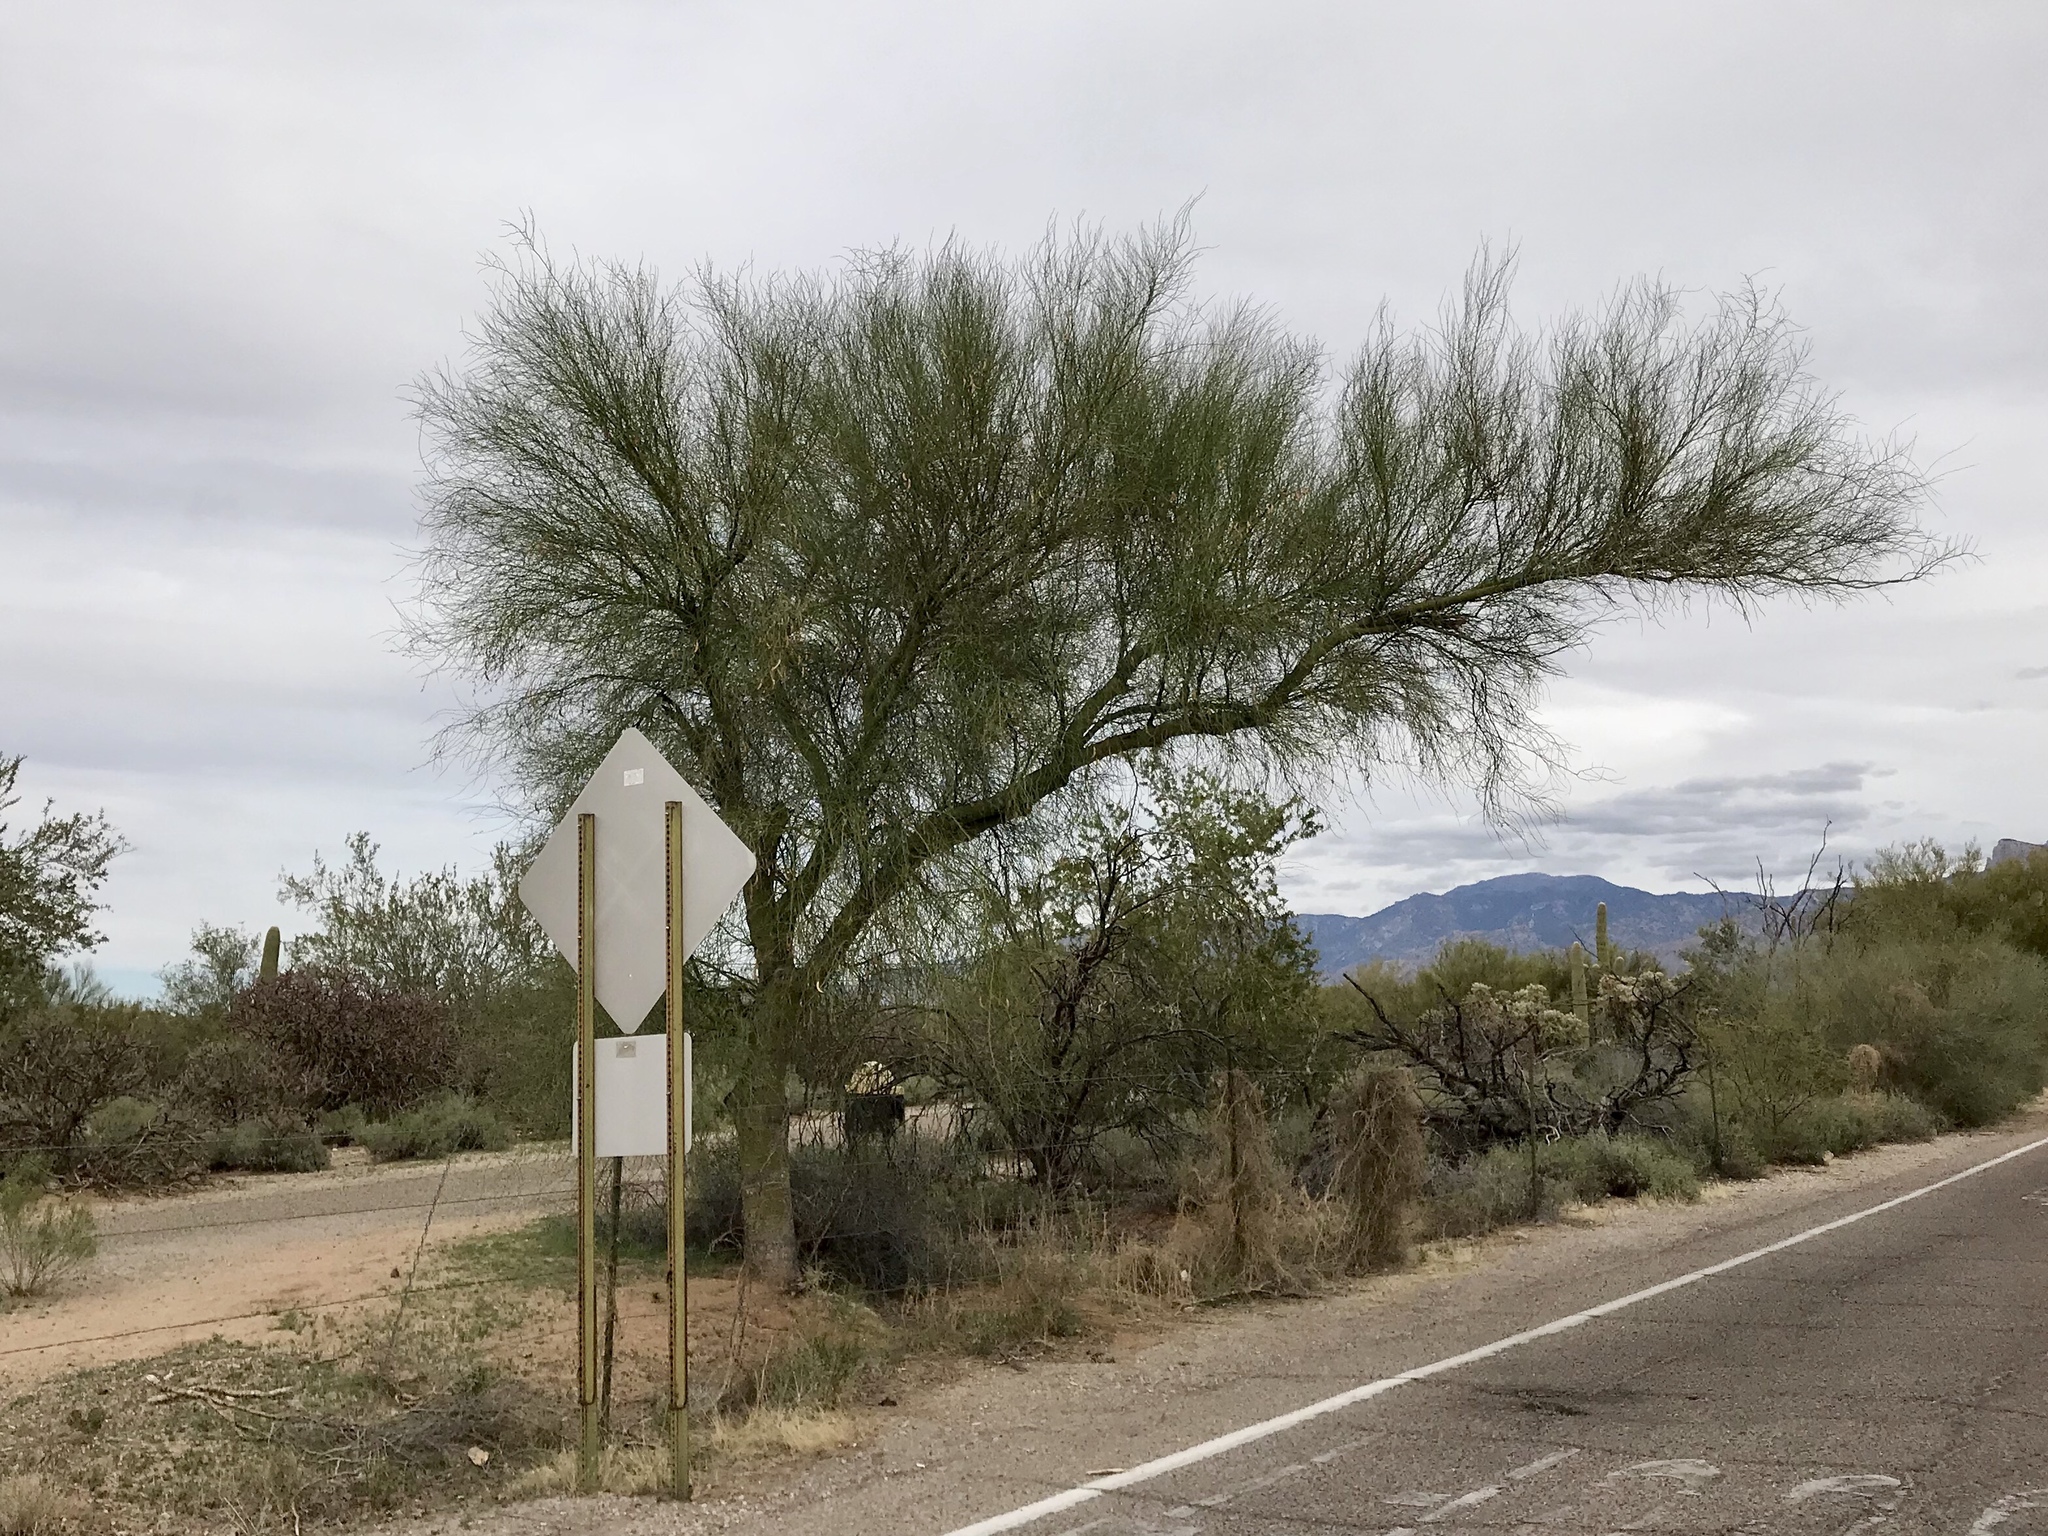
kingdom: Plantae
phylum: Tracheophyta
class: Magnoliopsida
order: Fabales
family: Fabaceae
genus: Parkinsonia
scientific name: Parkinsonia microphylla
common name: Yellow paloverde
